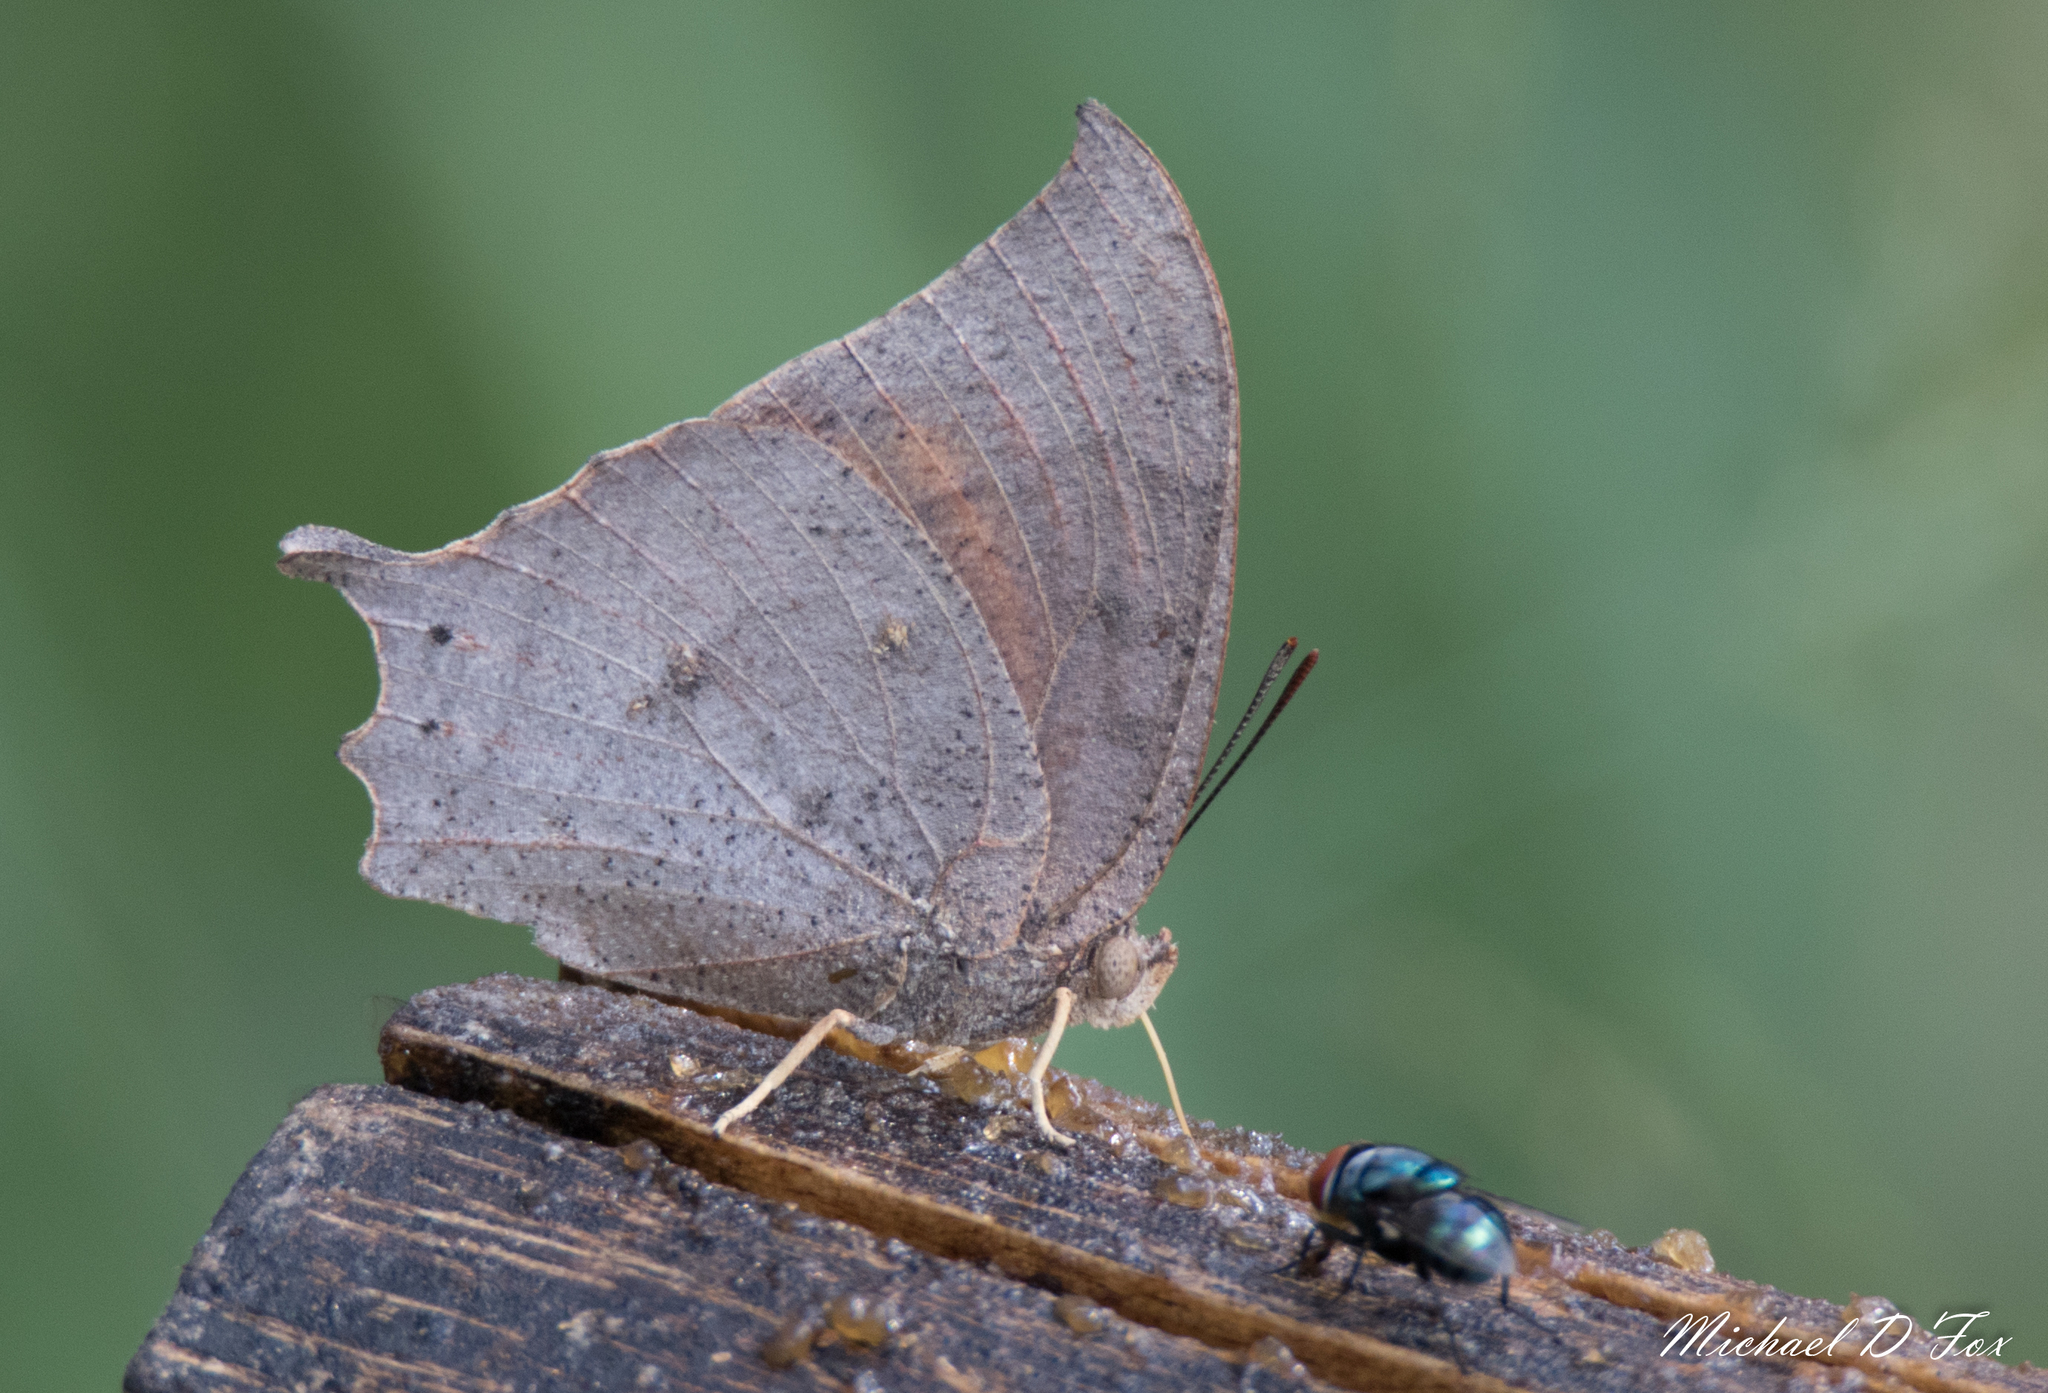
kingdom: Animalia
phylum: Arthropoda
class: Insecta
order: Lepidoptera
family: Nymphalidae
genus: Anaea
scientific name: Anaea aidea
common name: Tropical leafwing
